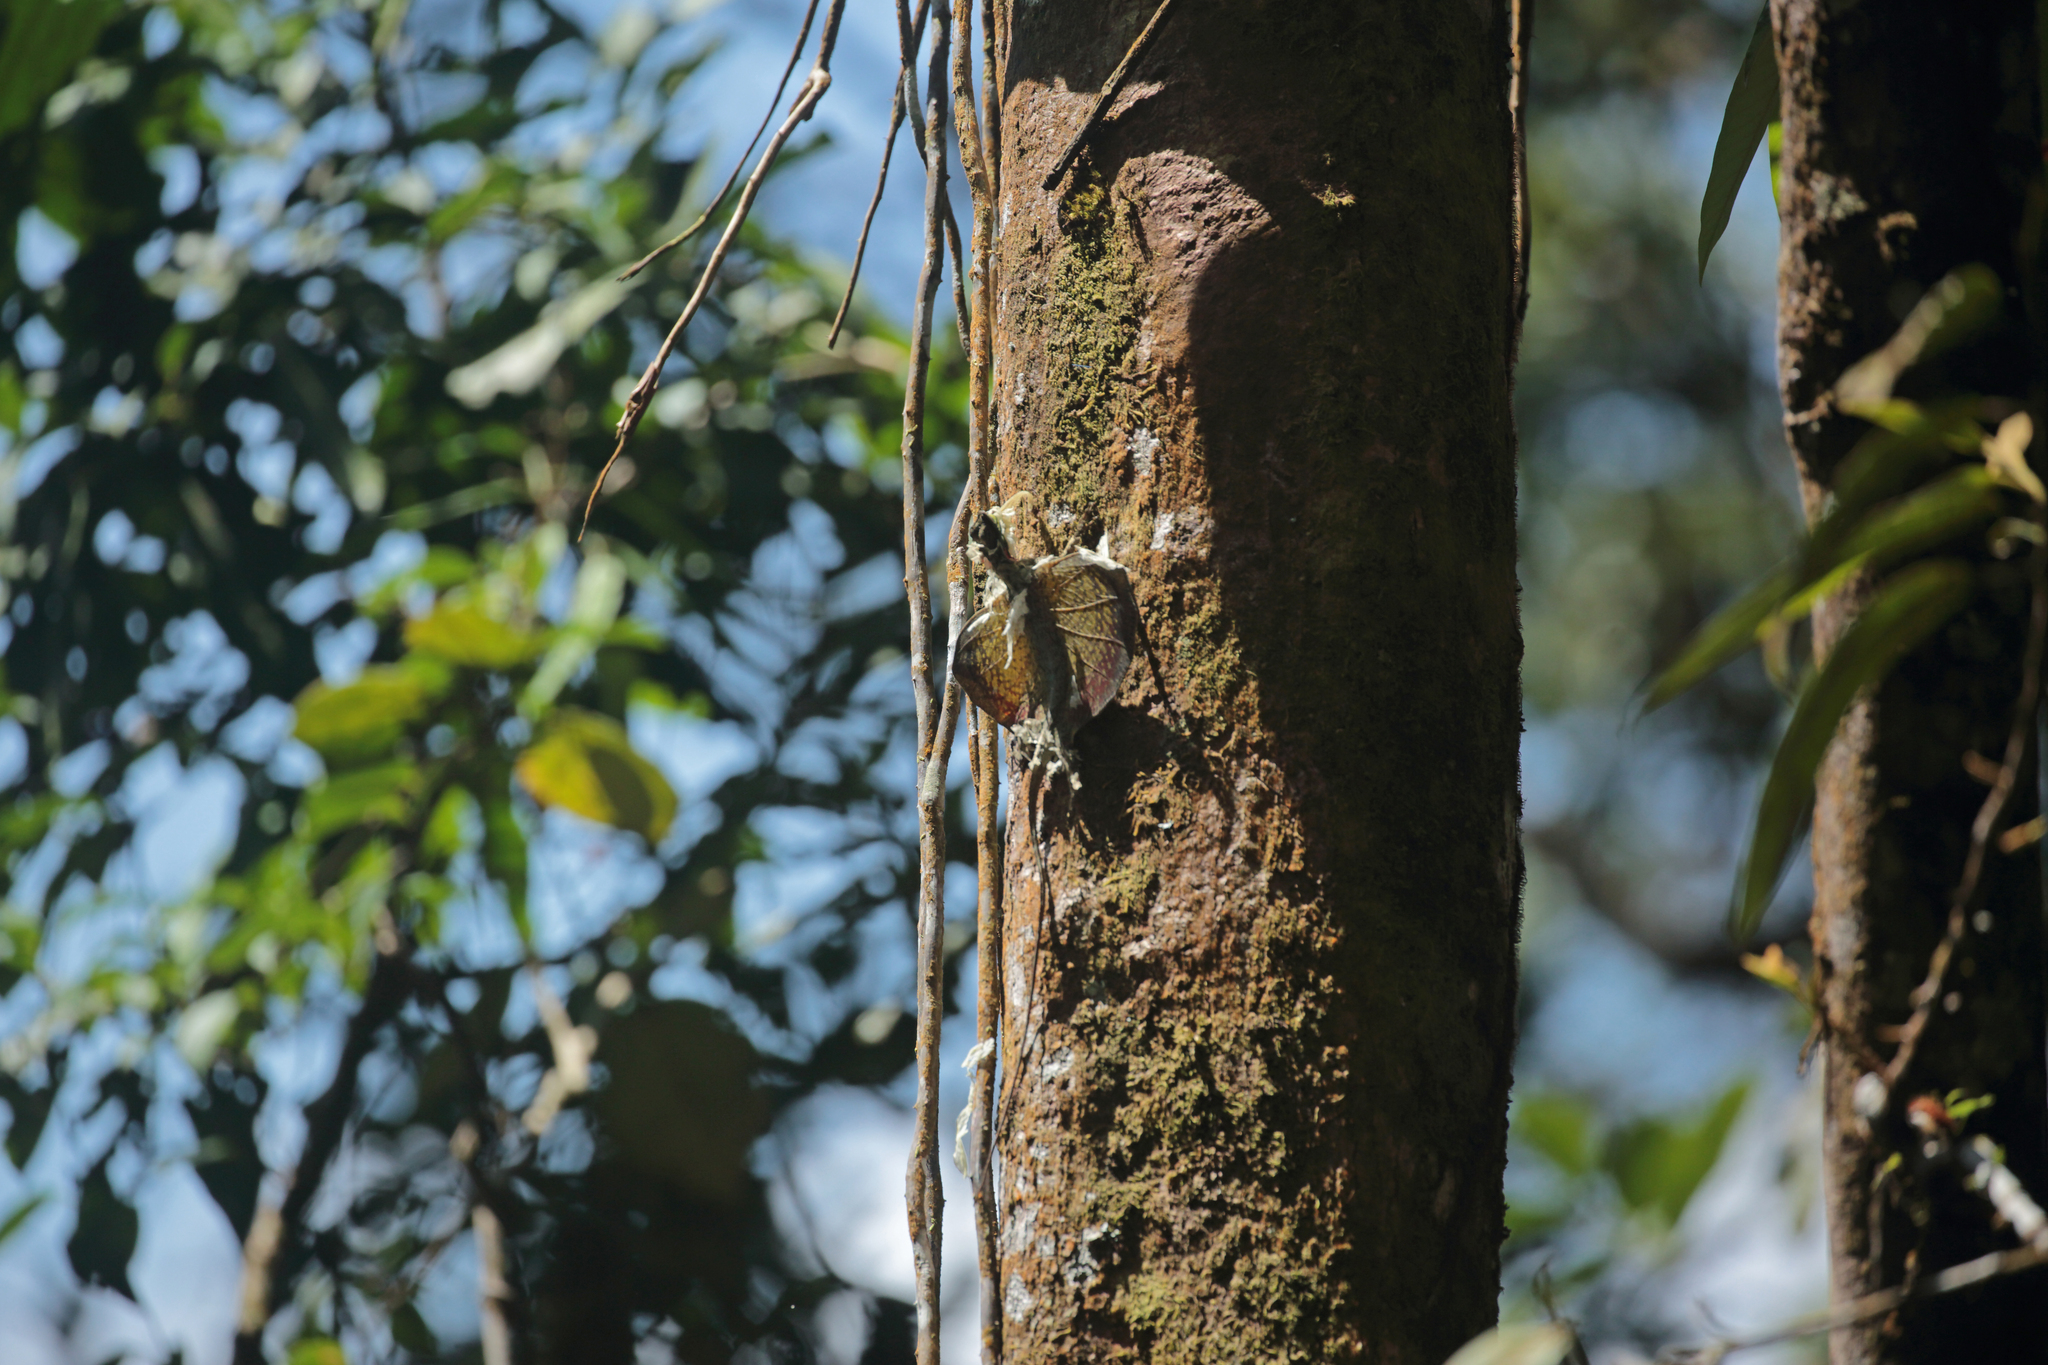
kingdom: Animalia
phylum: Chordata
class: Squamata
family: Agamidae
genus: Draco
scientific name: Draco blanfordii
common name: Blanford's flying dragon
